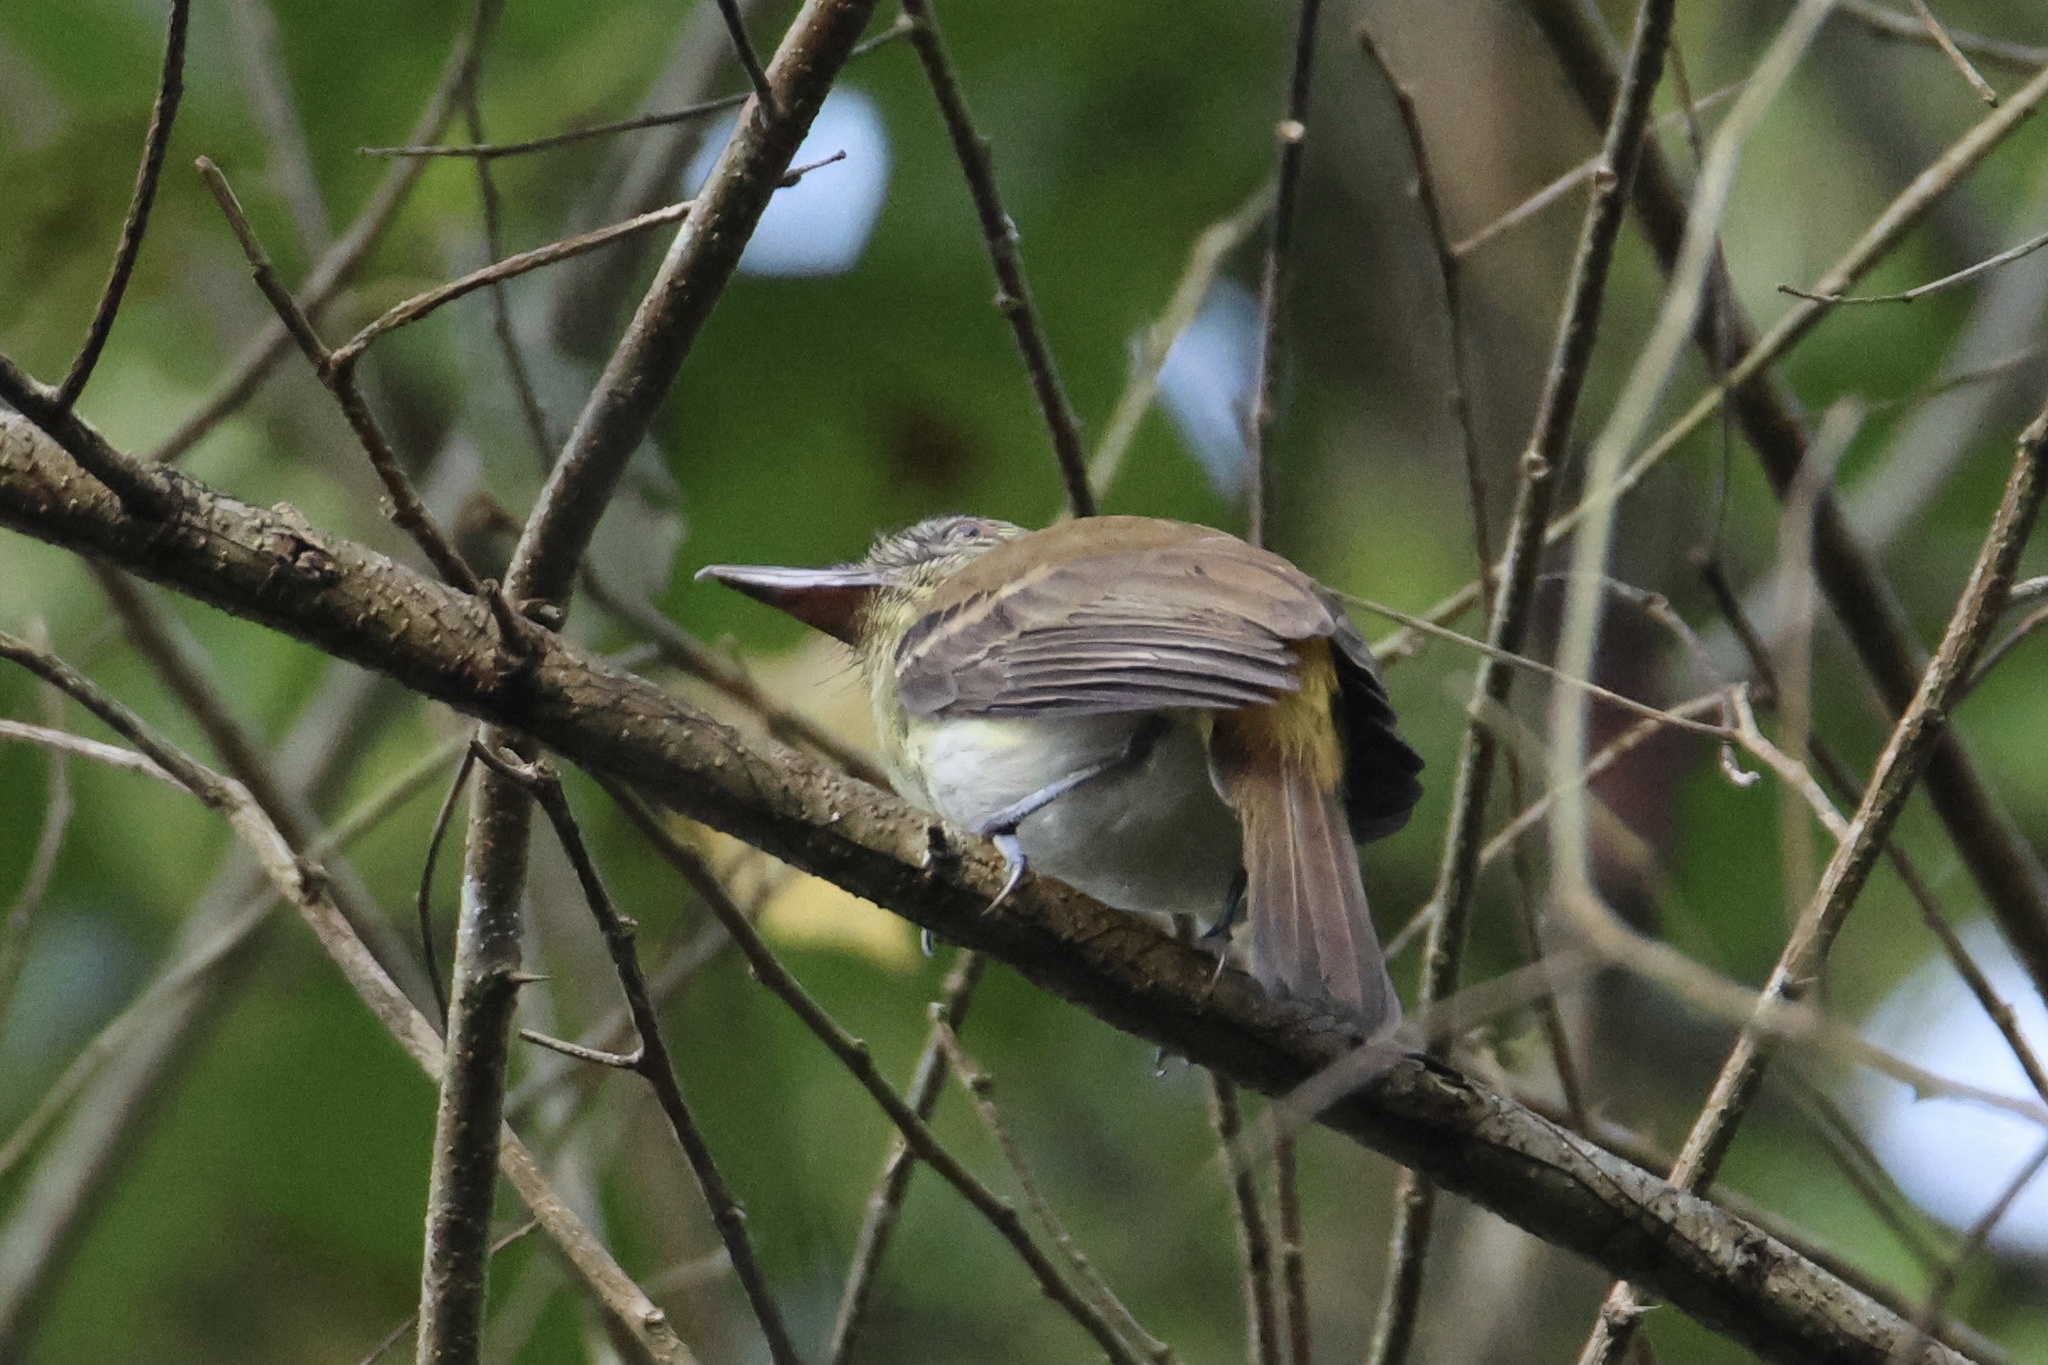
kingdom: Animalia
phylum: Chordata
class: Aves
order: Passeriformes
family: Tyrannidae
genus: Attila
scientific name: Attila spadiceus
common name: Bright-rumped attila
